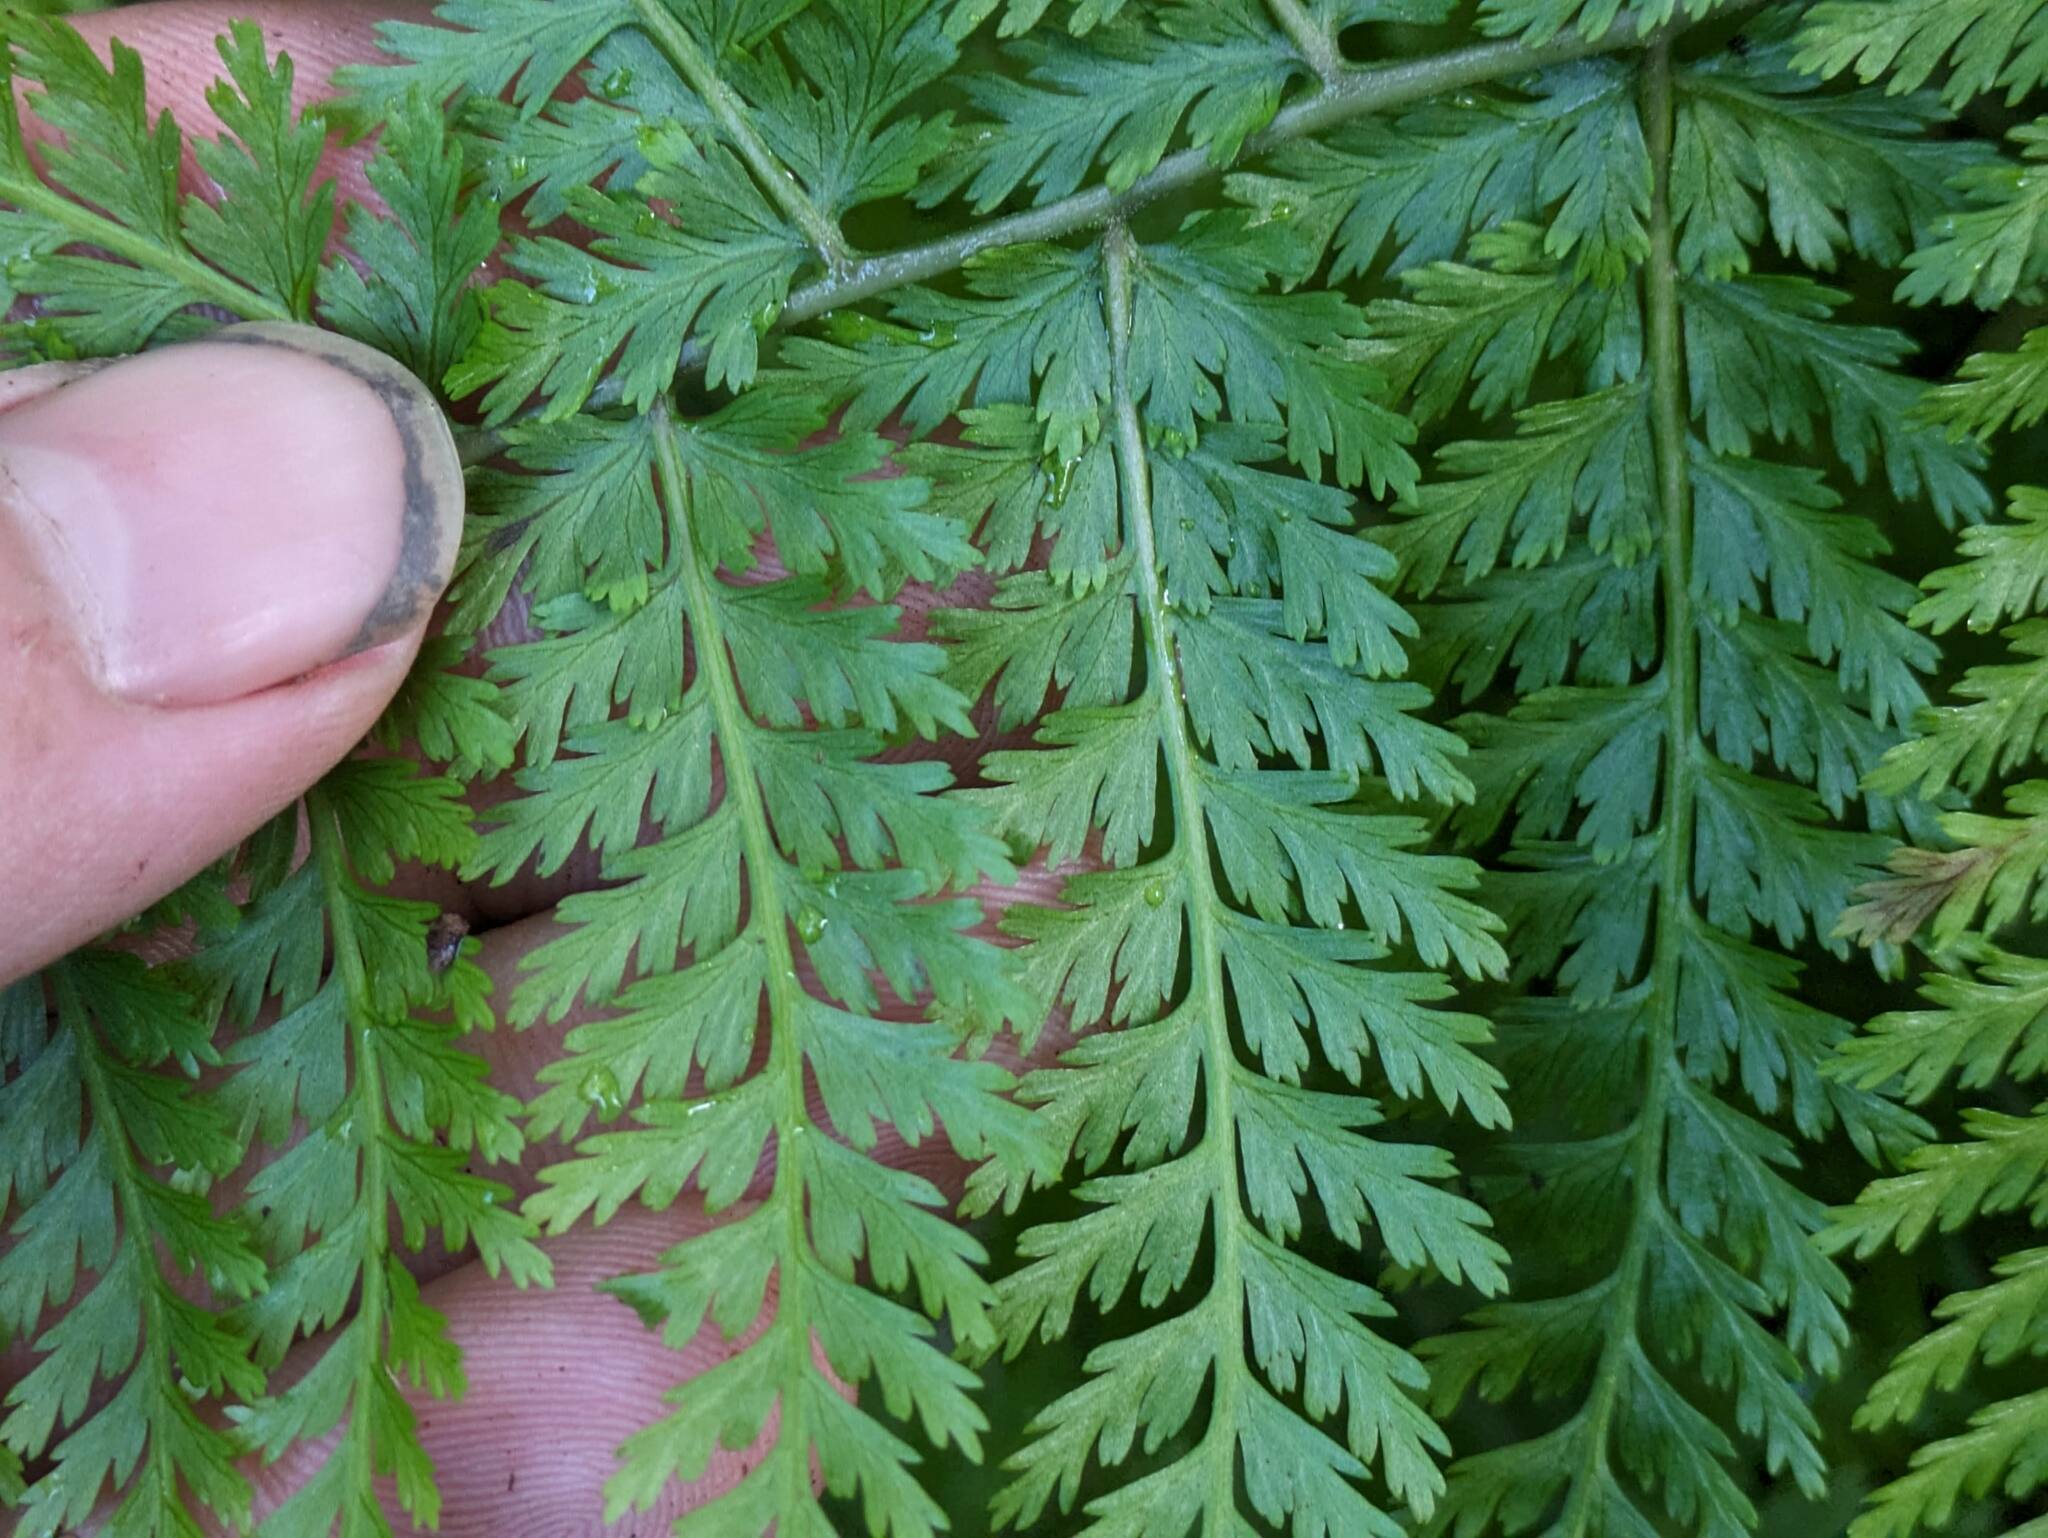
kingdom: Plantae
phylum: Tracheophyta
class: Polypodiopsida
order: Polypodiales
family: Athyriaceae
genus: Athyrium
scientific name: Athyrium microphyllum
